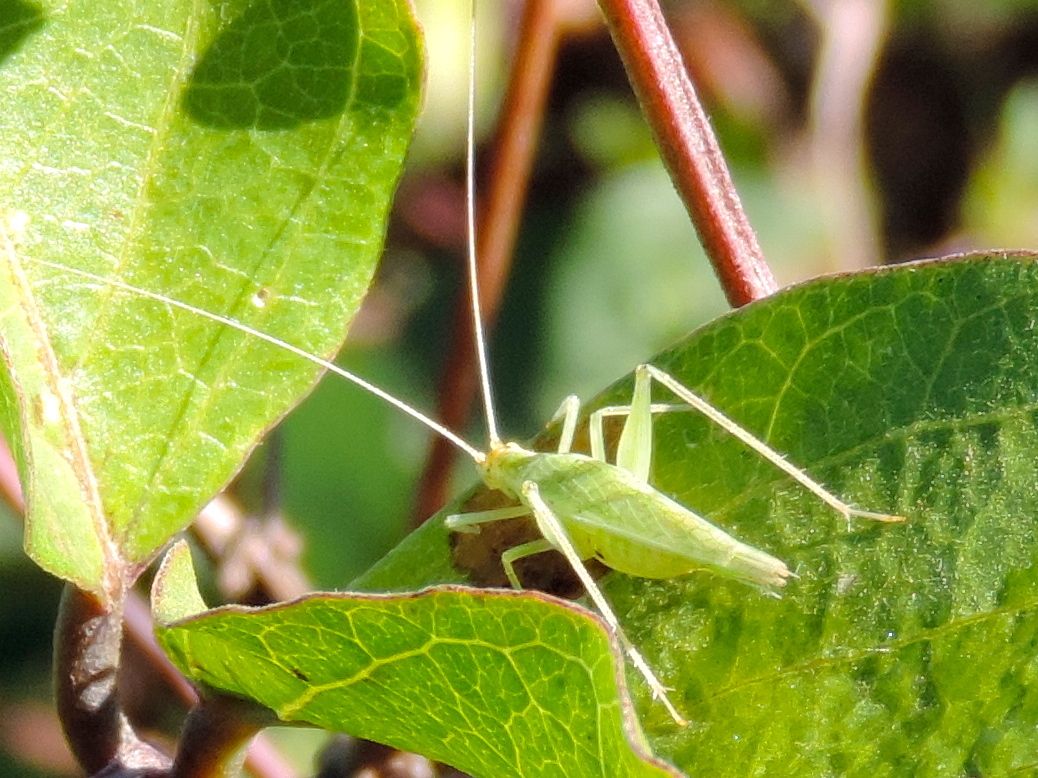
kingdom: Animalia
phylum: Arthropoda
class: Insecta
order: Orthoptera
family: Gryllidae
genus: Oecanthus
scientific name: Oecanthus
